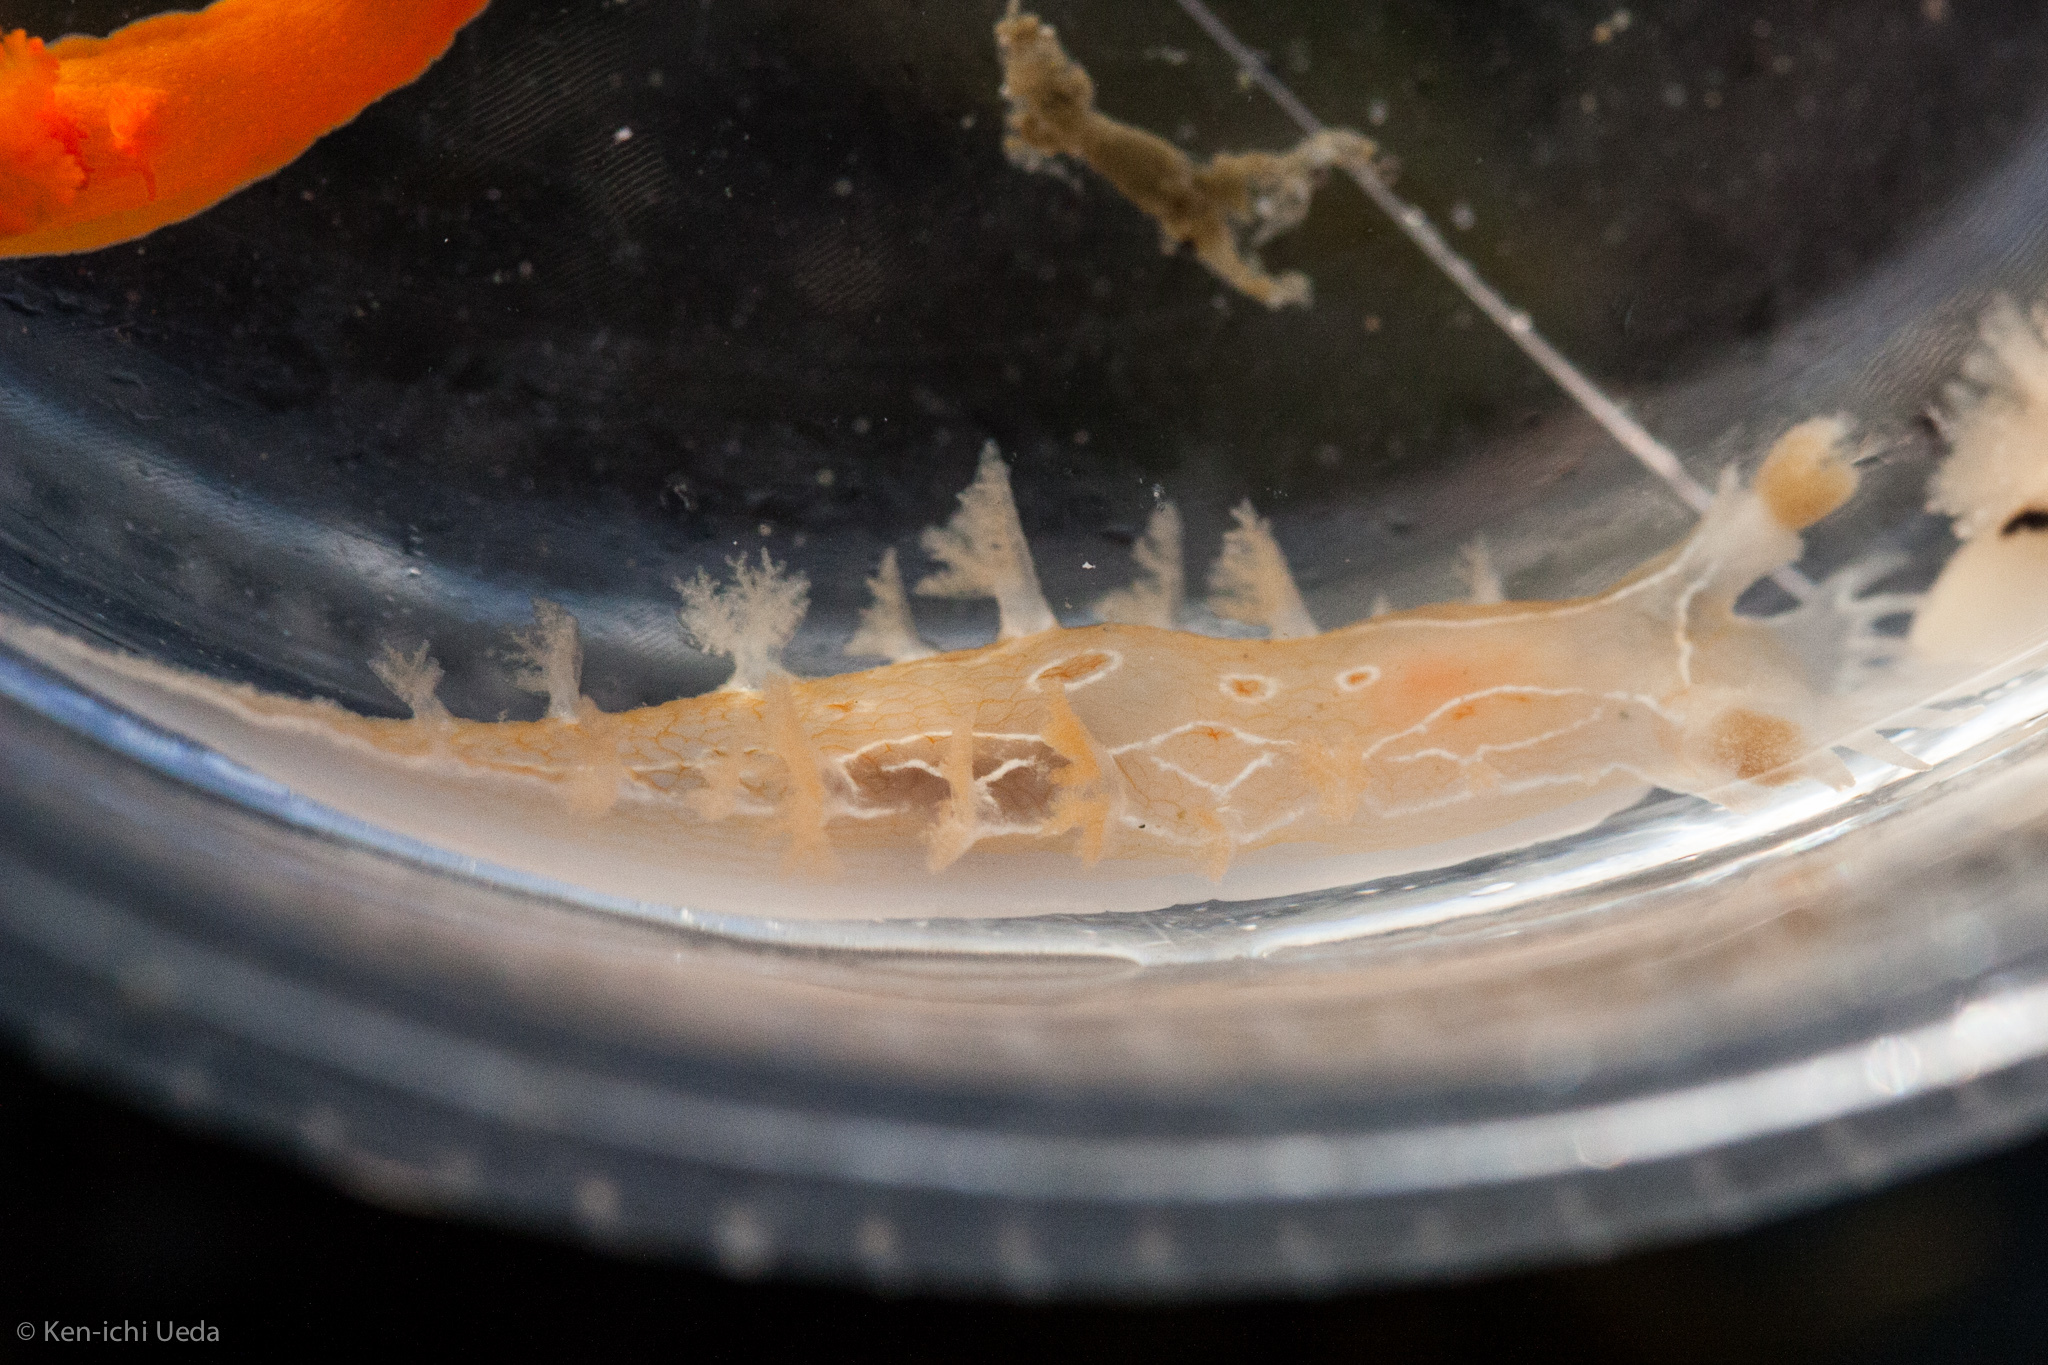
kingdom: Animalia
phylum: Mollusca
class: Gastropoda
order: Nudibranchia
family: Tritoniidae
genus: Tritonia
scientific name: Tritonia festiva
